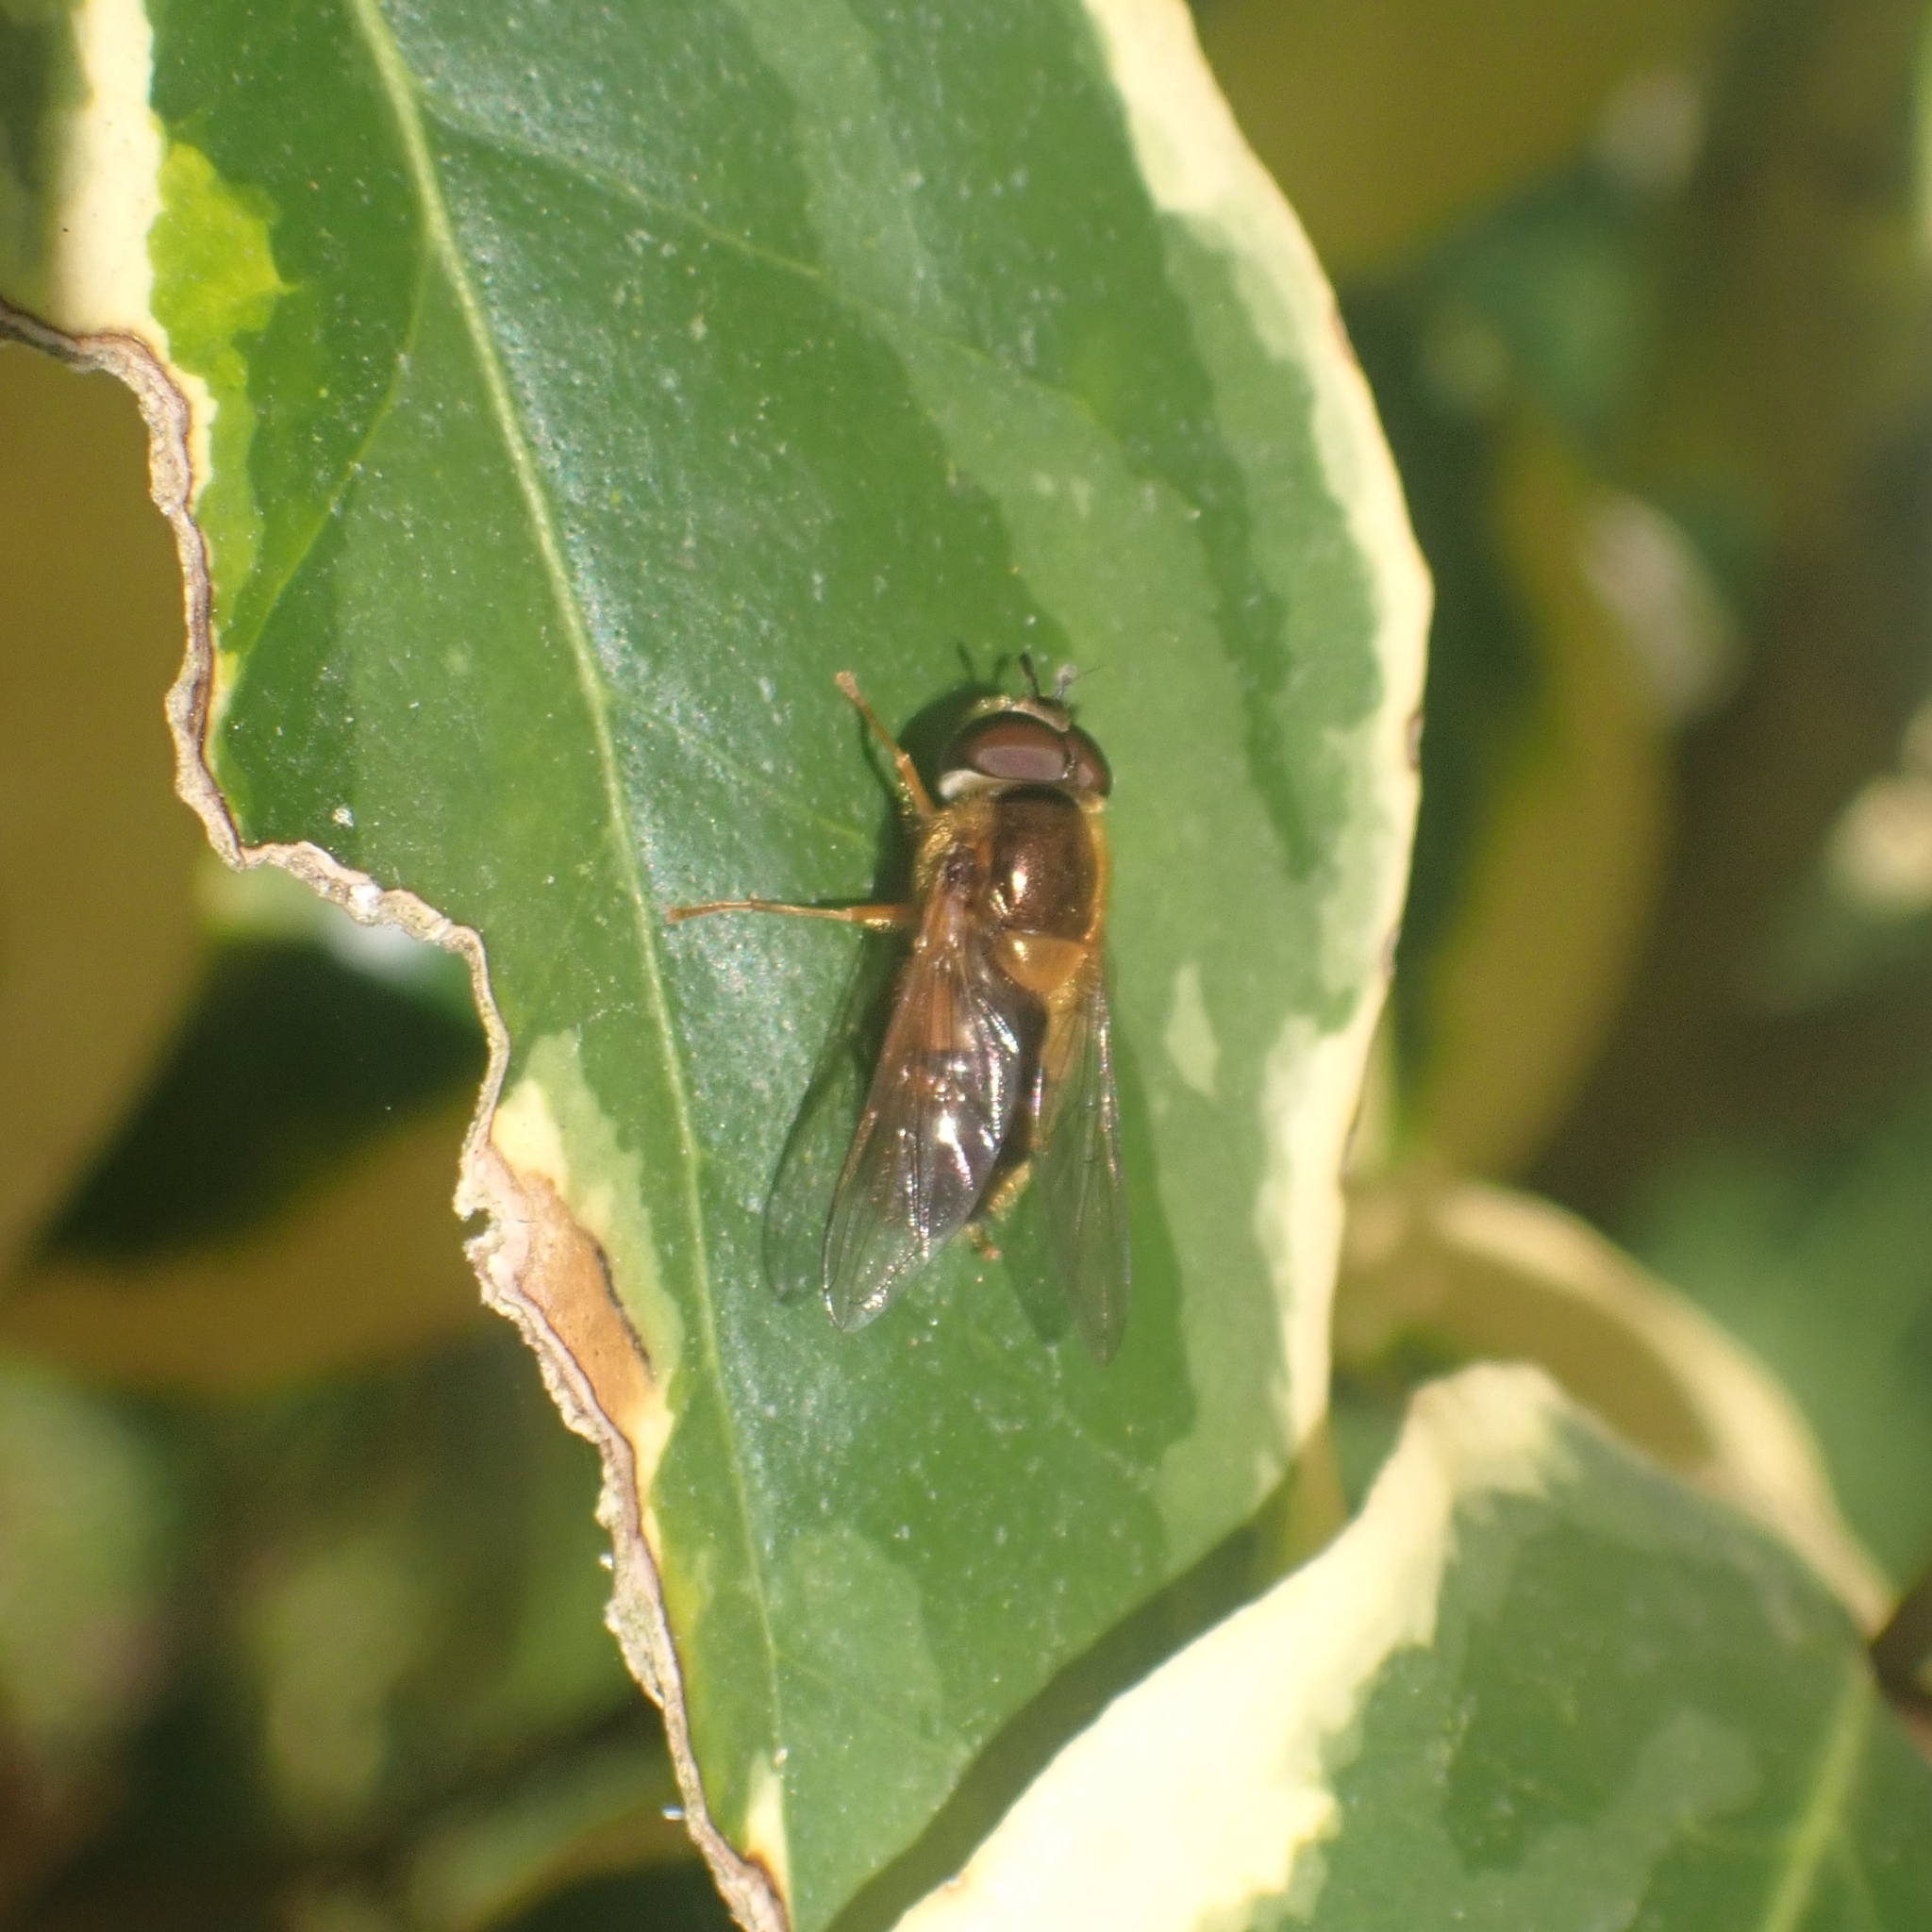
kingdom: Animalia
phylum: Arthropoda
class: Insecta
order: Diptera
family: Syrphidae
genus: Epistrophe
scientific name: Epistrophe eligans
